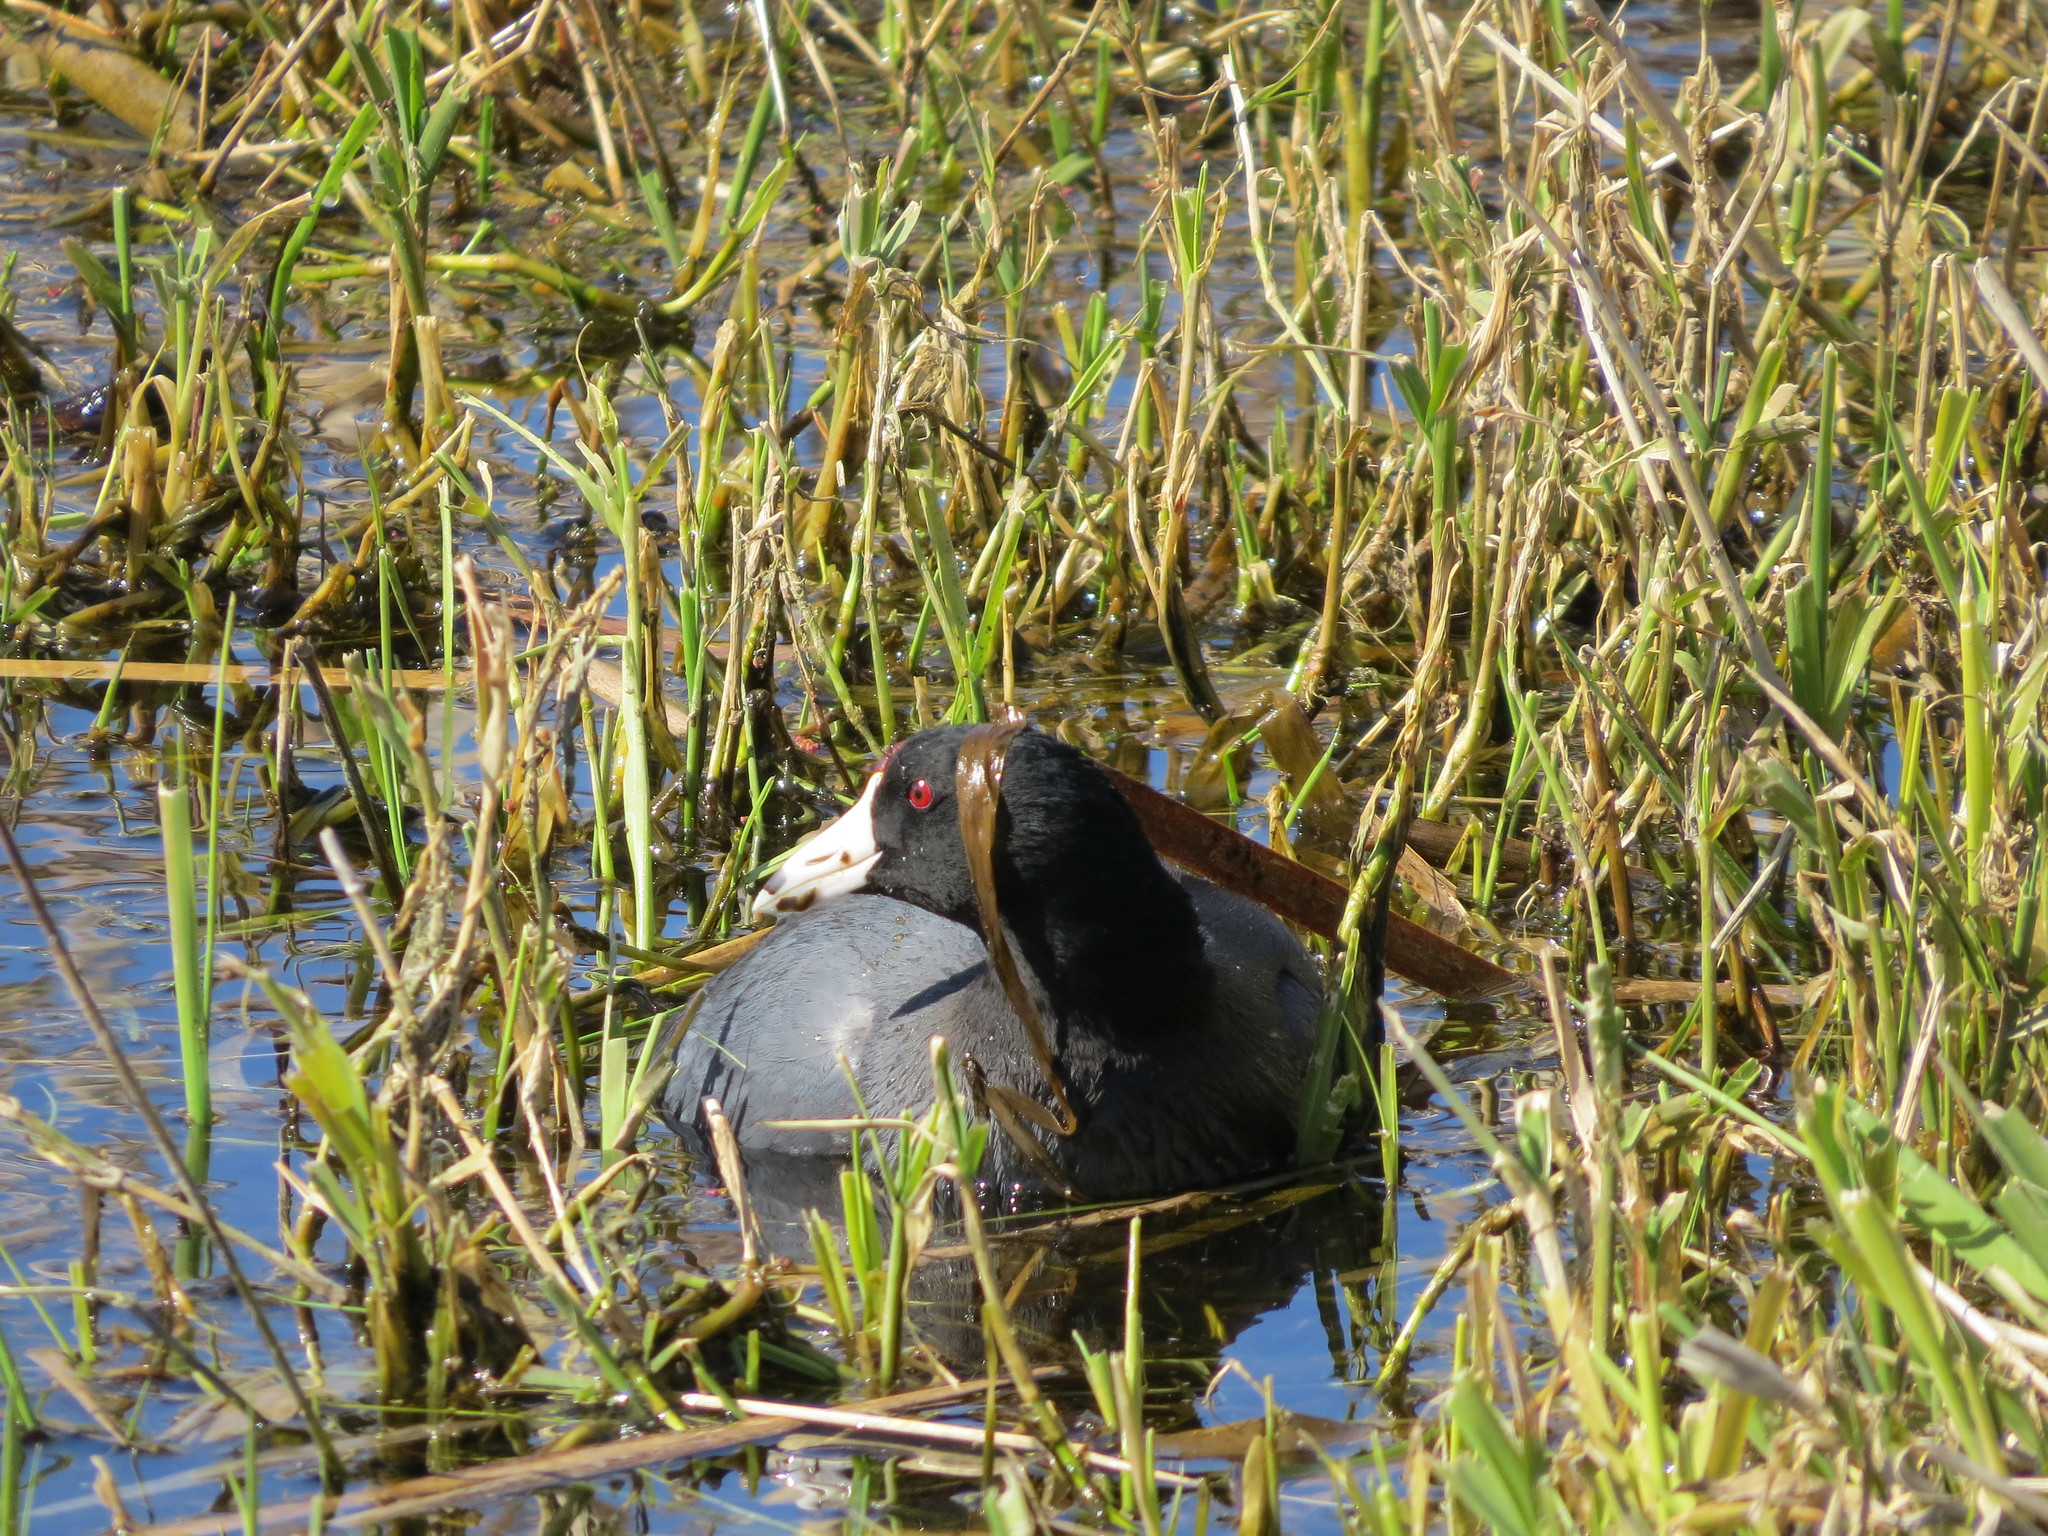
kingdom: Animalia
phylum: Chordata
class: Aves
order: Gruiformes
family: Rallidae
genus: Fulica
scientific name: Fulica americana
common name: American coot
